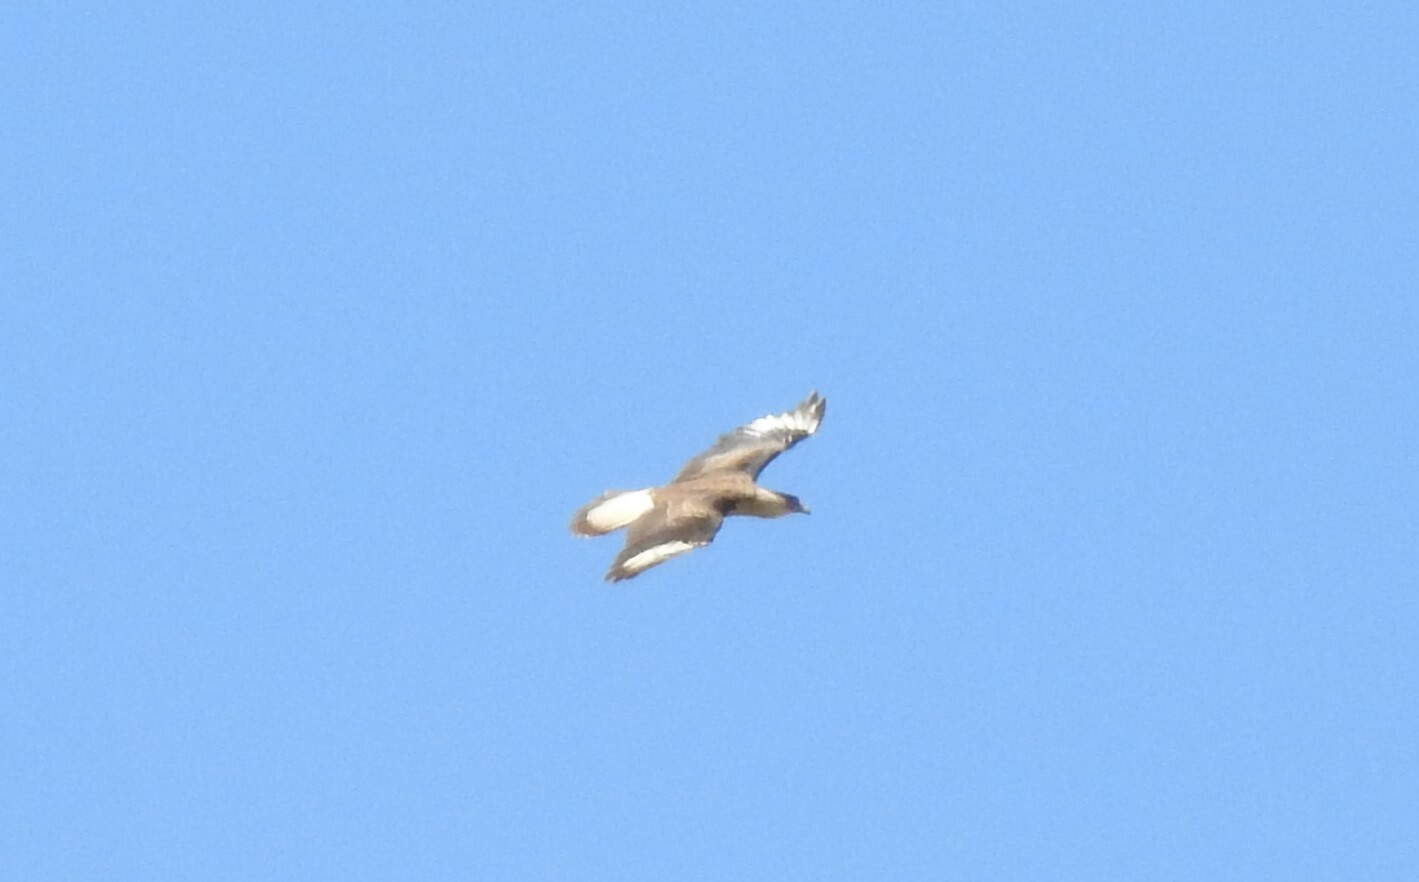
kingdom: Animalia
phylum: Chordata
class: Aves
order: Falconiformes
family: Falconidae
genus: Caracara
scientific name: Caracara plancus
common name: Southern caracara
